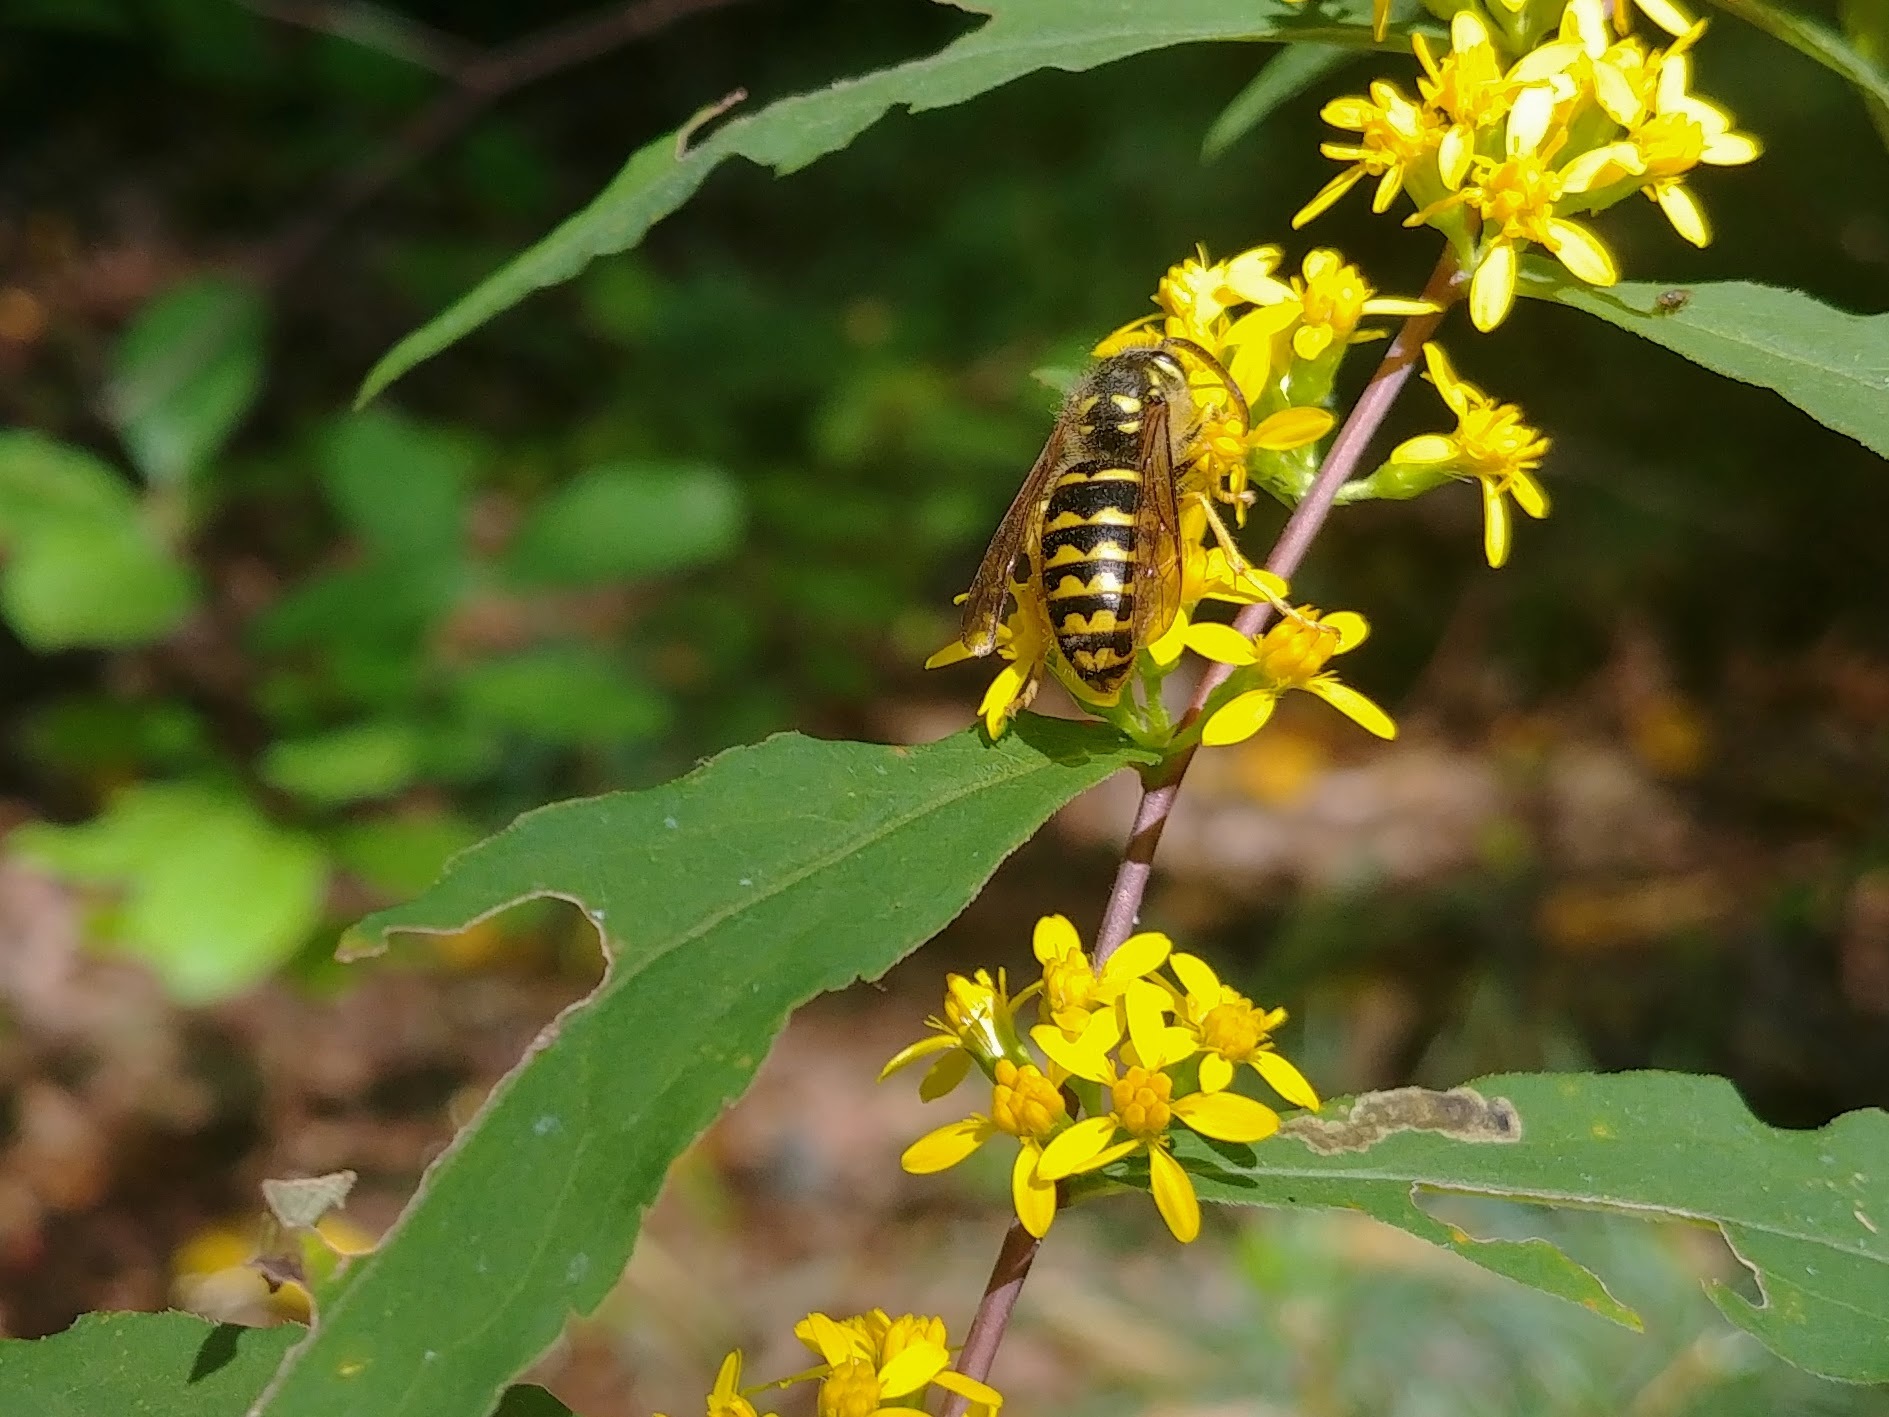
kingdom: Animalia
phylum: Arthropoda
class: Insecta
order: Hymenoptera
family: Vespidae
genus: Dolichovespula
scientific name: Dolichovespula arenaria
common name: Aerial yellowjacket
